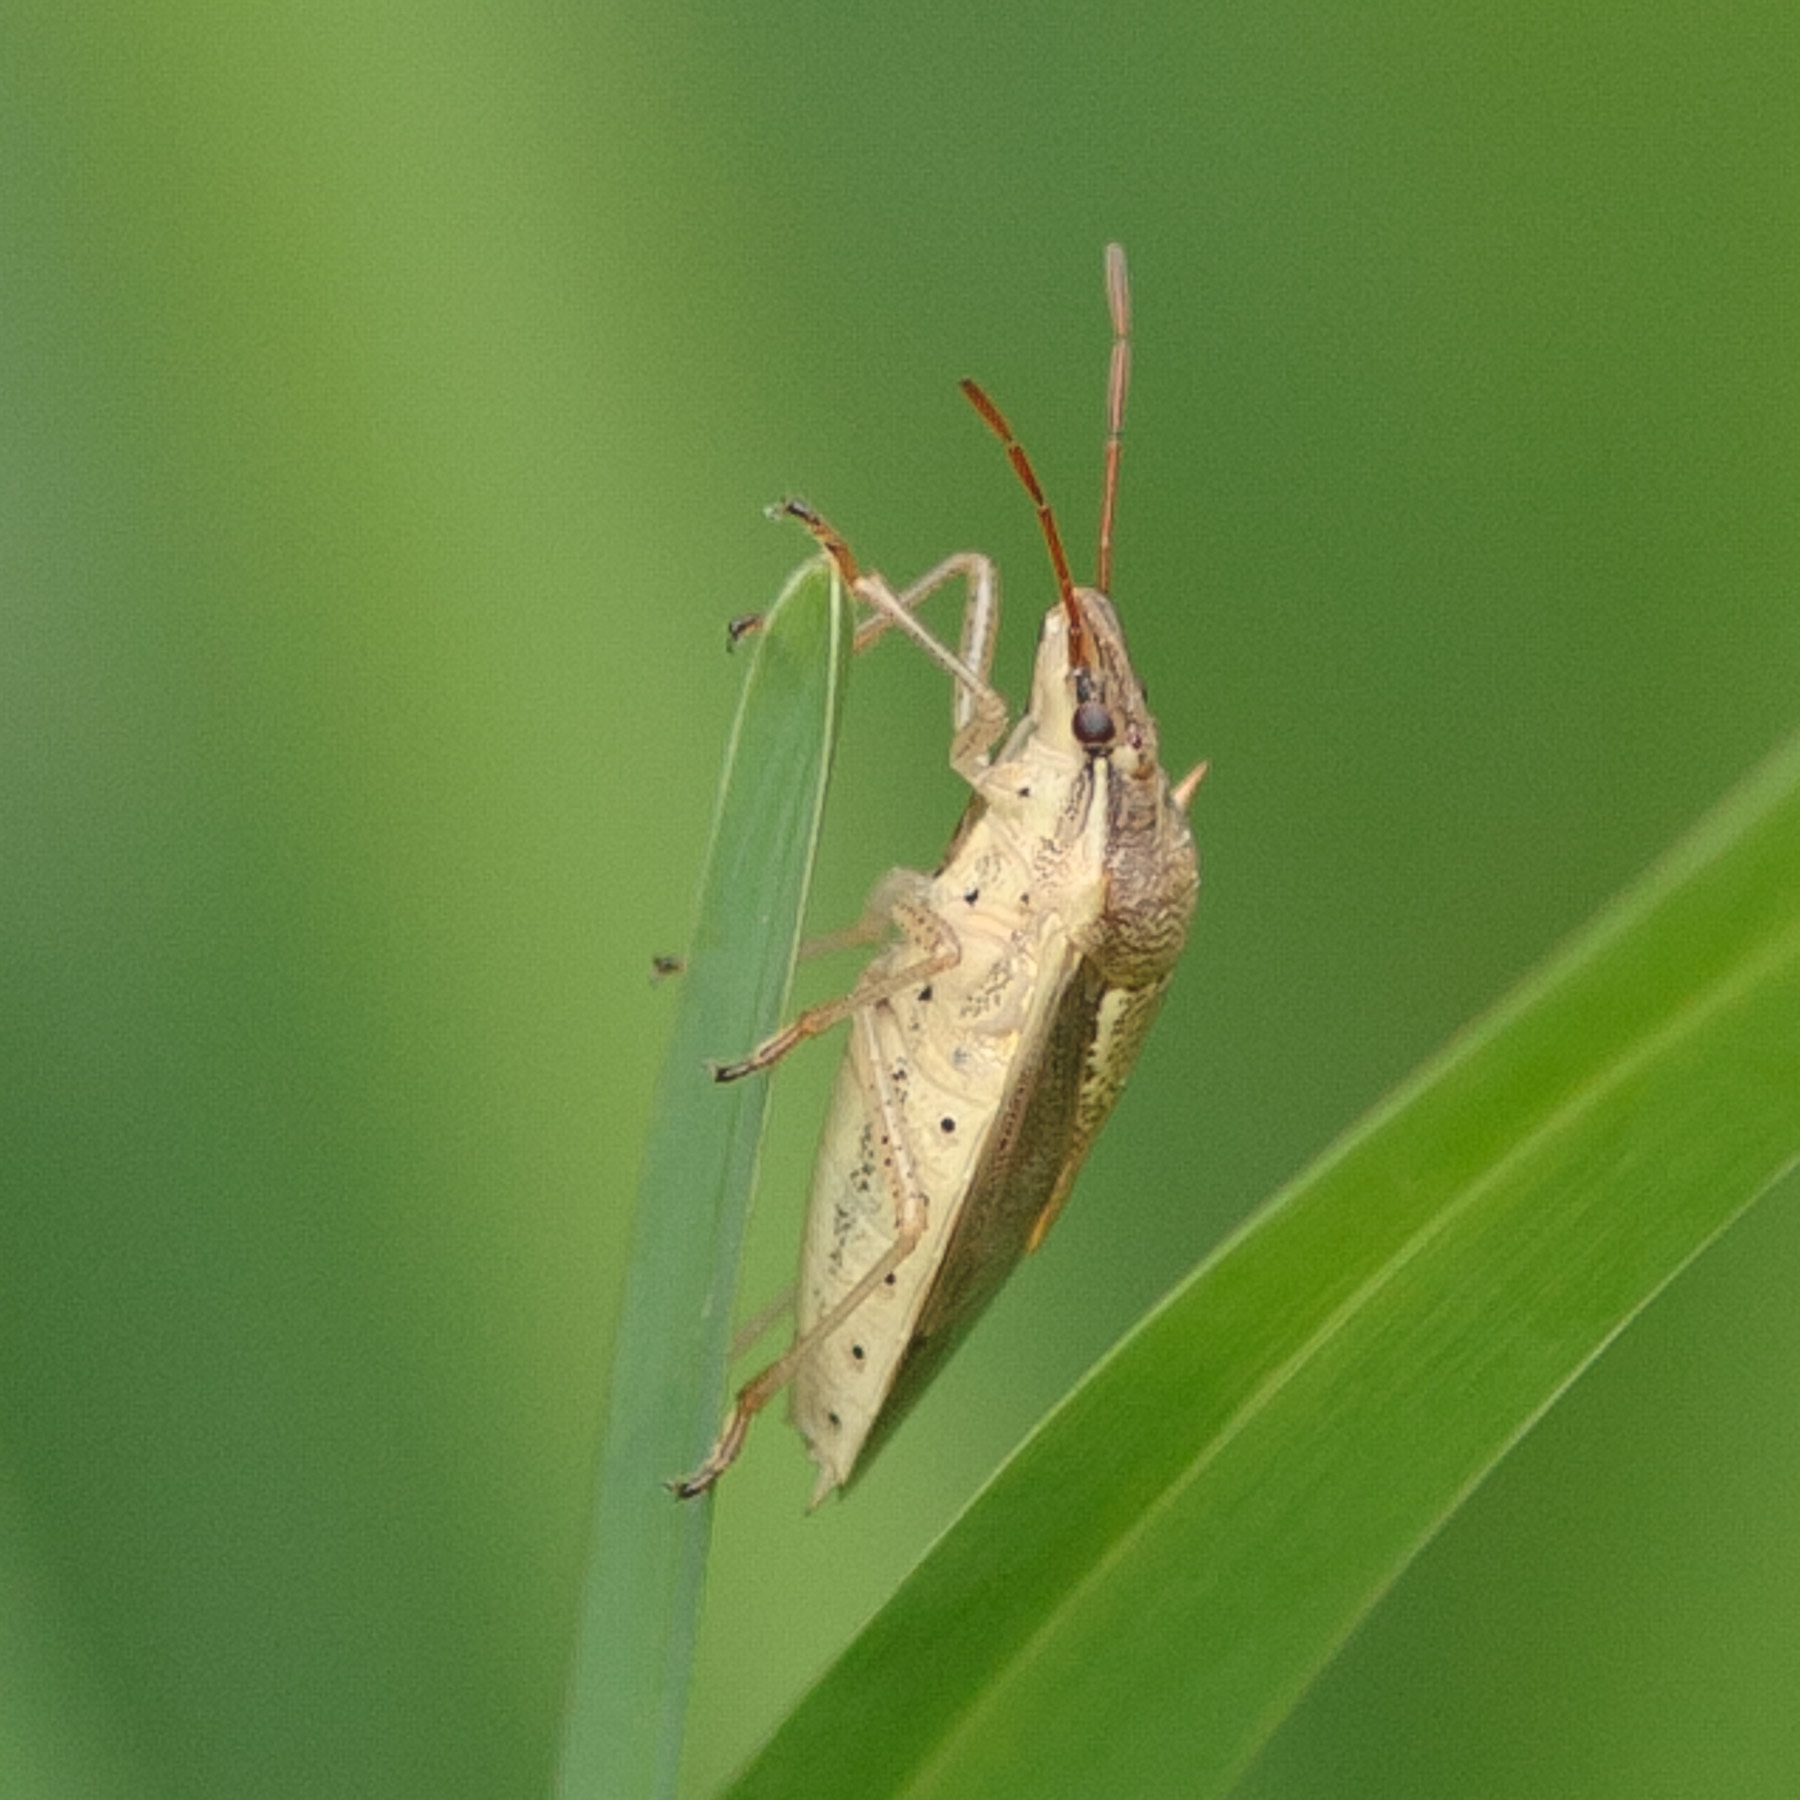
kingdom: Animalia
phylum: Arthropoda
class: Insecta
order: Hemiptera
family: Pentatomidae
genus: Oebalus
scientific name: Oebalus pugnax
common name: Rice stink bug
